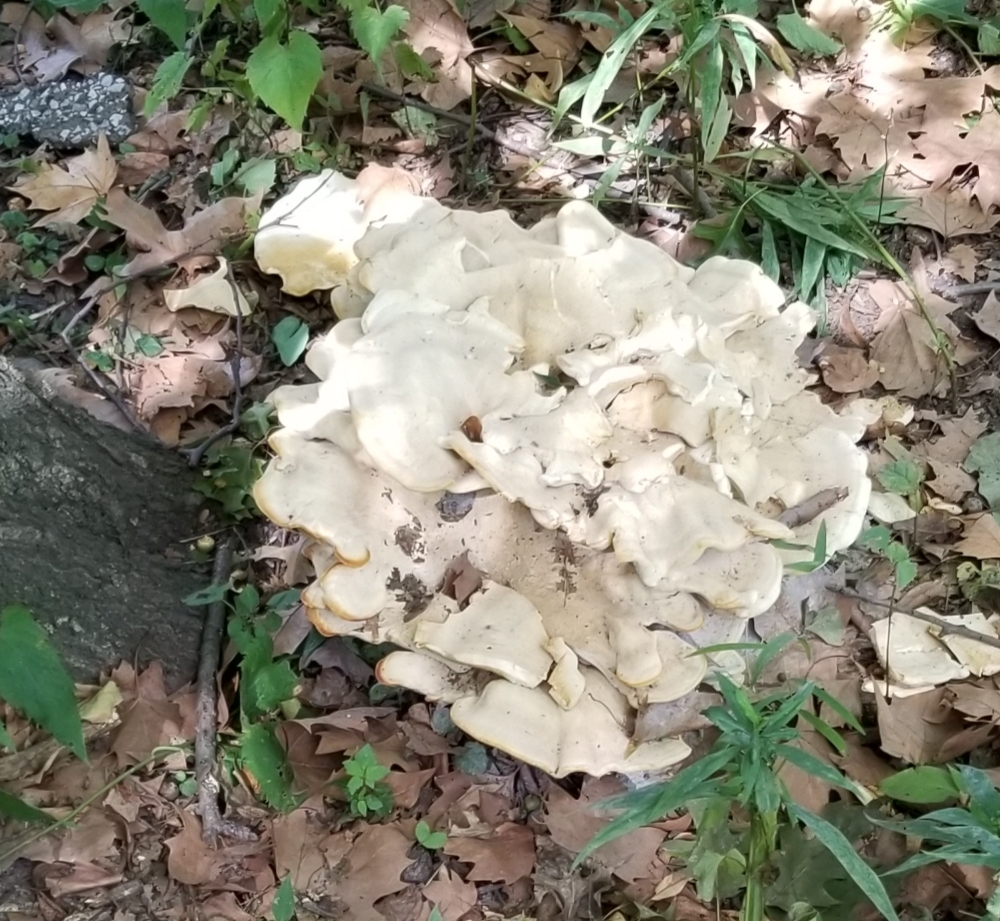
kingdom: Fungi
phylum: Basidiomycota
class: Agaricomycetes
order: Russulales
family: Bondarzewiaceae
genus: Bondarzewia
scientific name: Bondarzewia berkeleyi
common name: Berkeley's polypore
